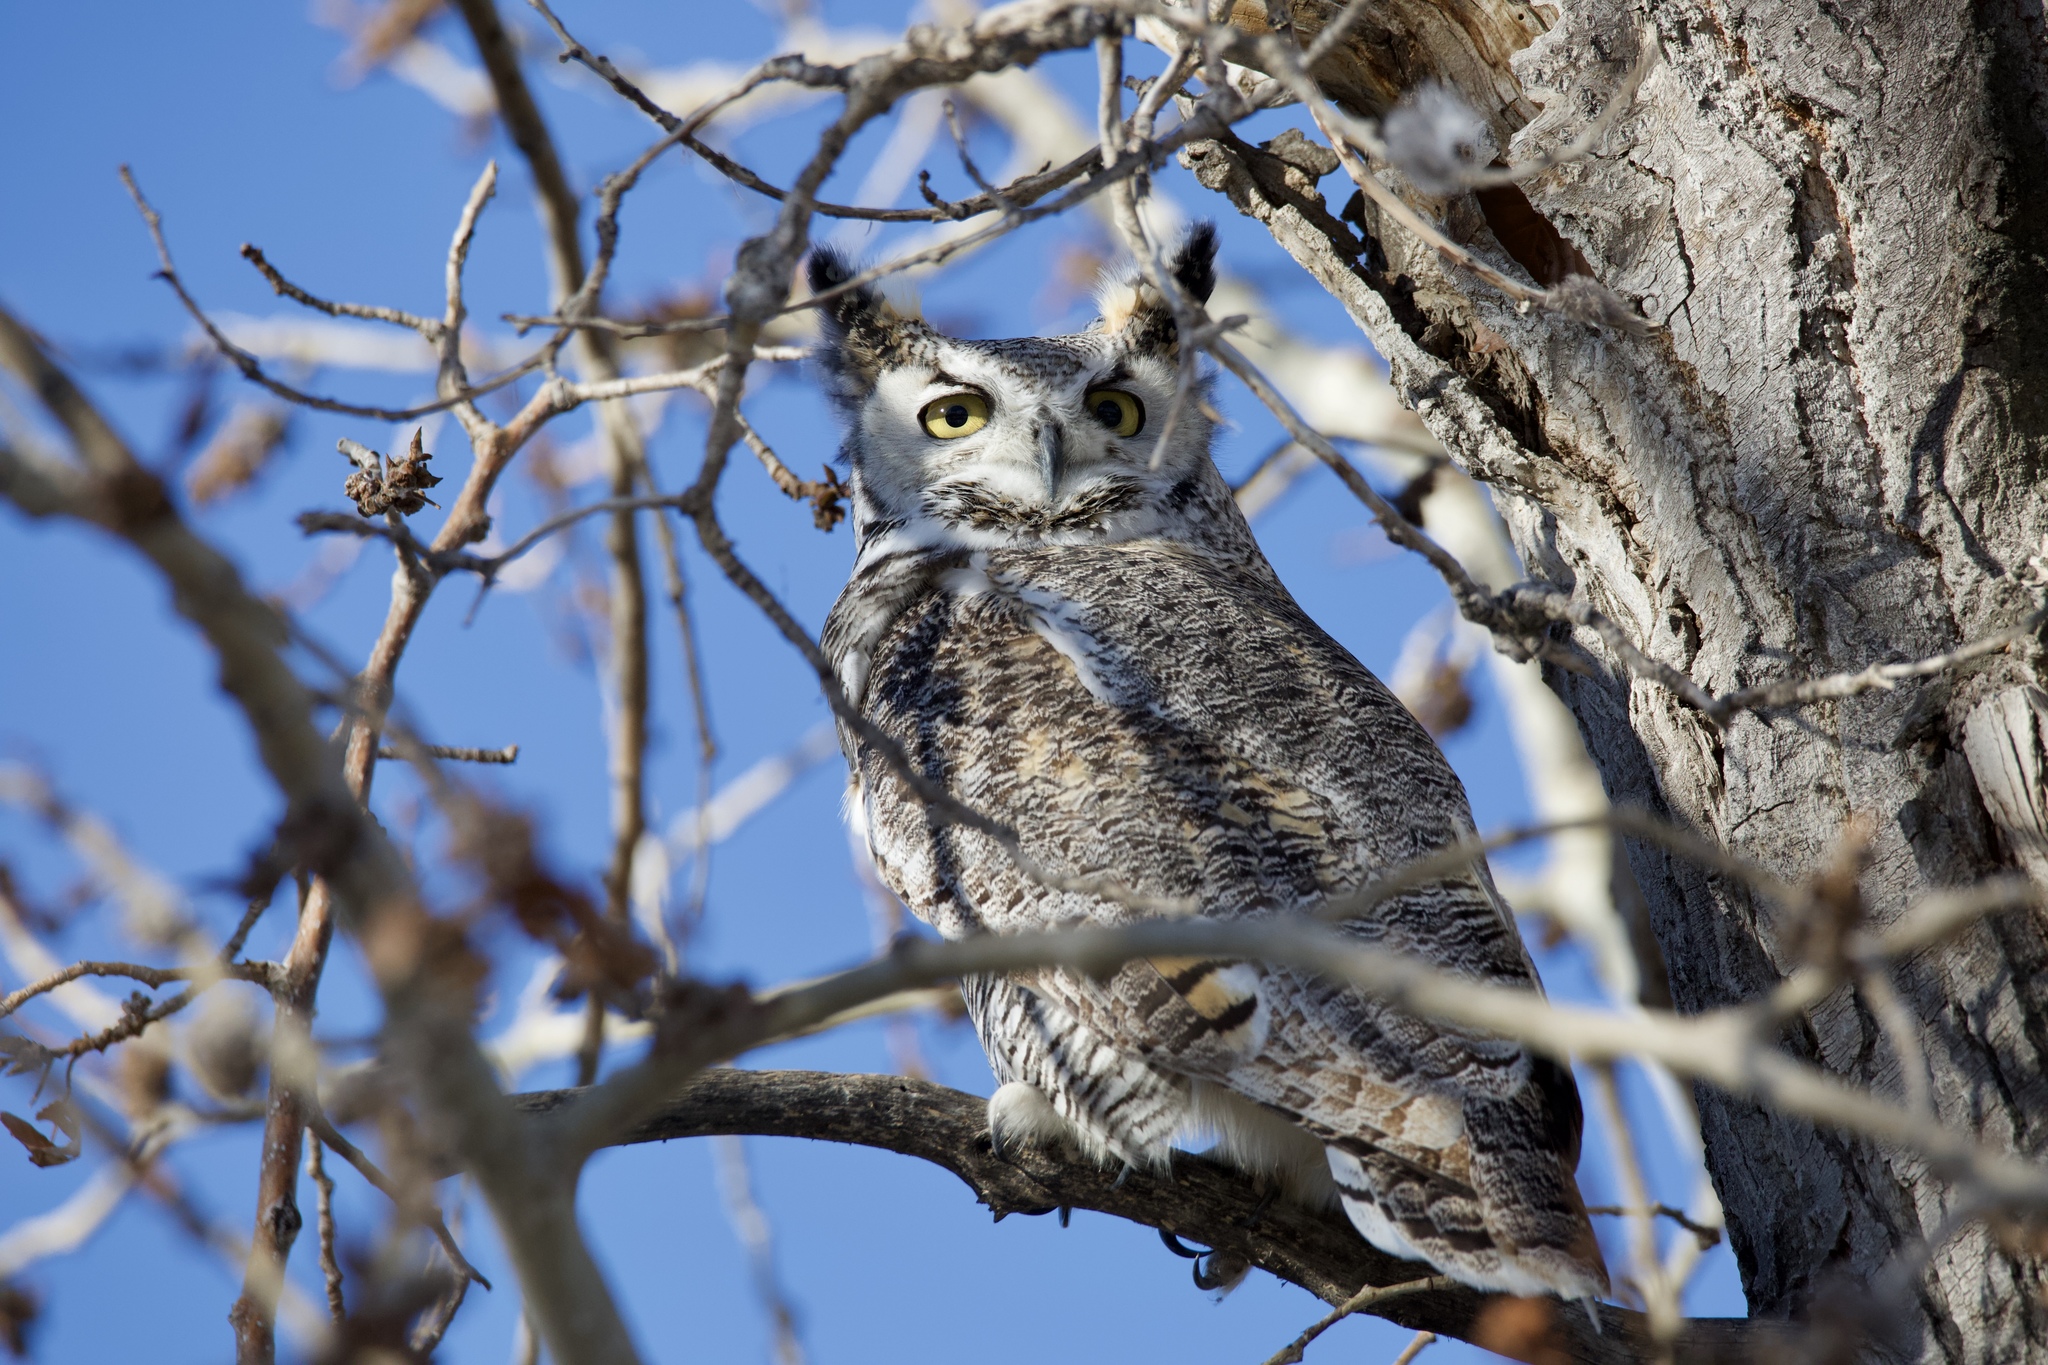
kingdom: Animalia
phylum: Chordata
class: Aves
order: Strigiformes
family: Strigidae
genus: Bubo
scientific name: Bubo virginianus
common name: Great horned owl
